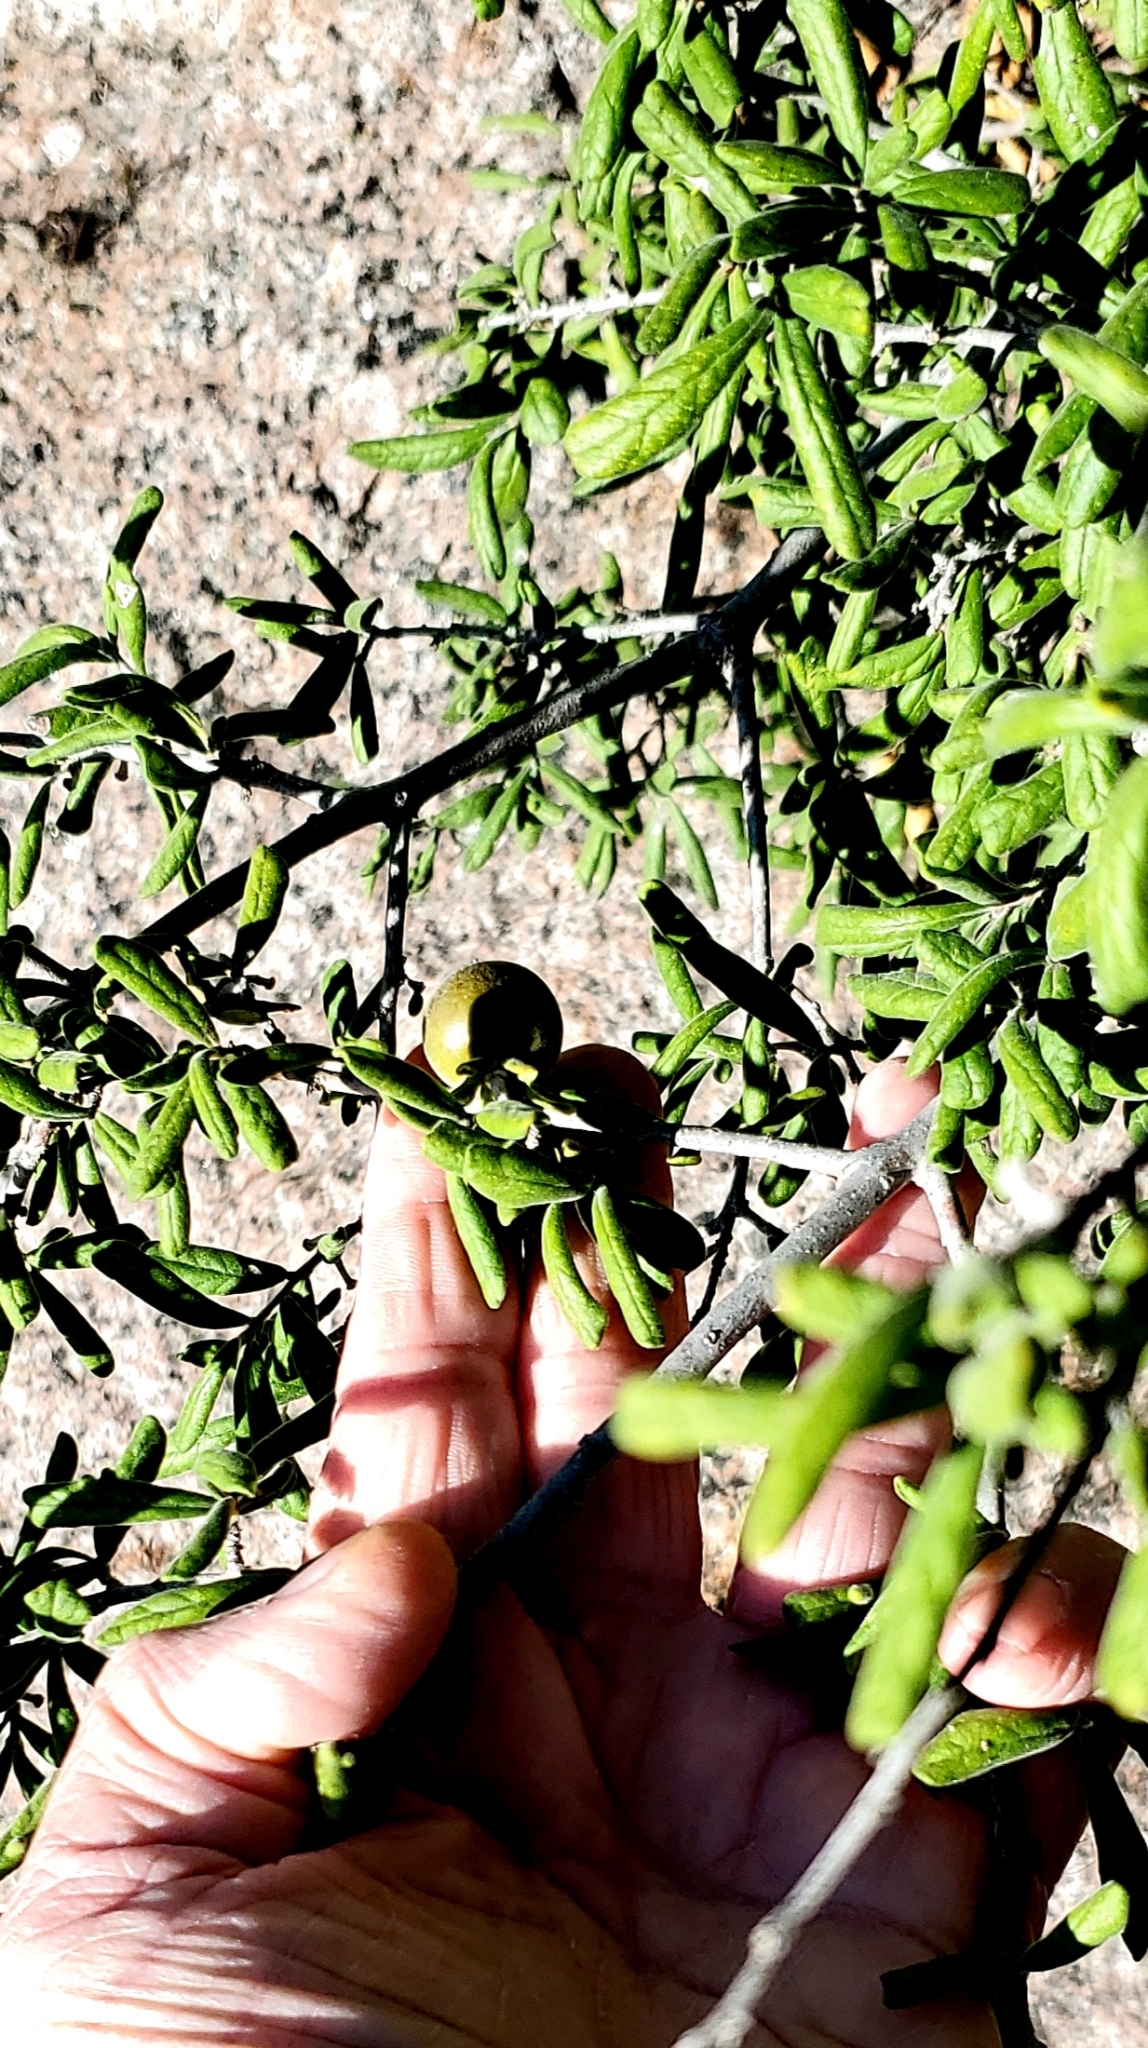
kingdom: Plantae
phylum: Tracheophyta
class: Magnoliopsida
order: Ericales
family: Ebenaceae
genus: Diospyros
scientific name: Diospyros texana
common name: Texas persimmon
